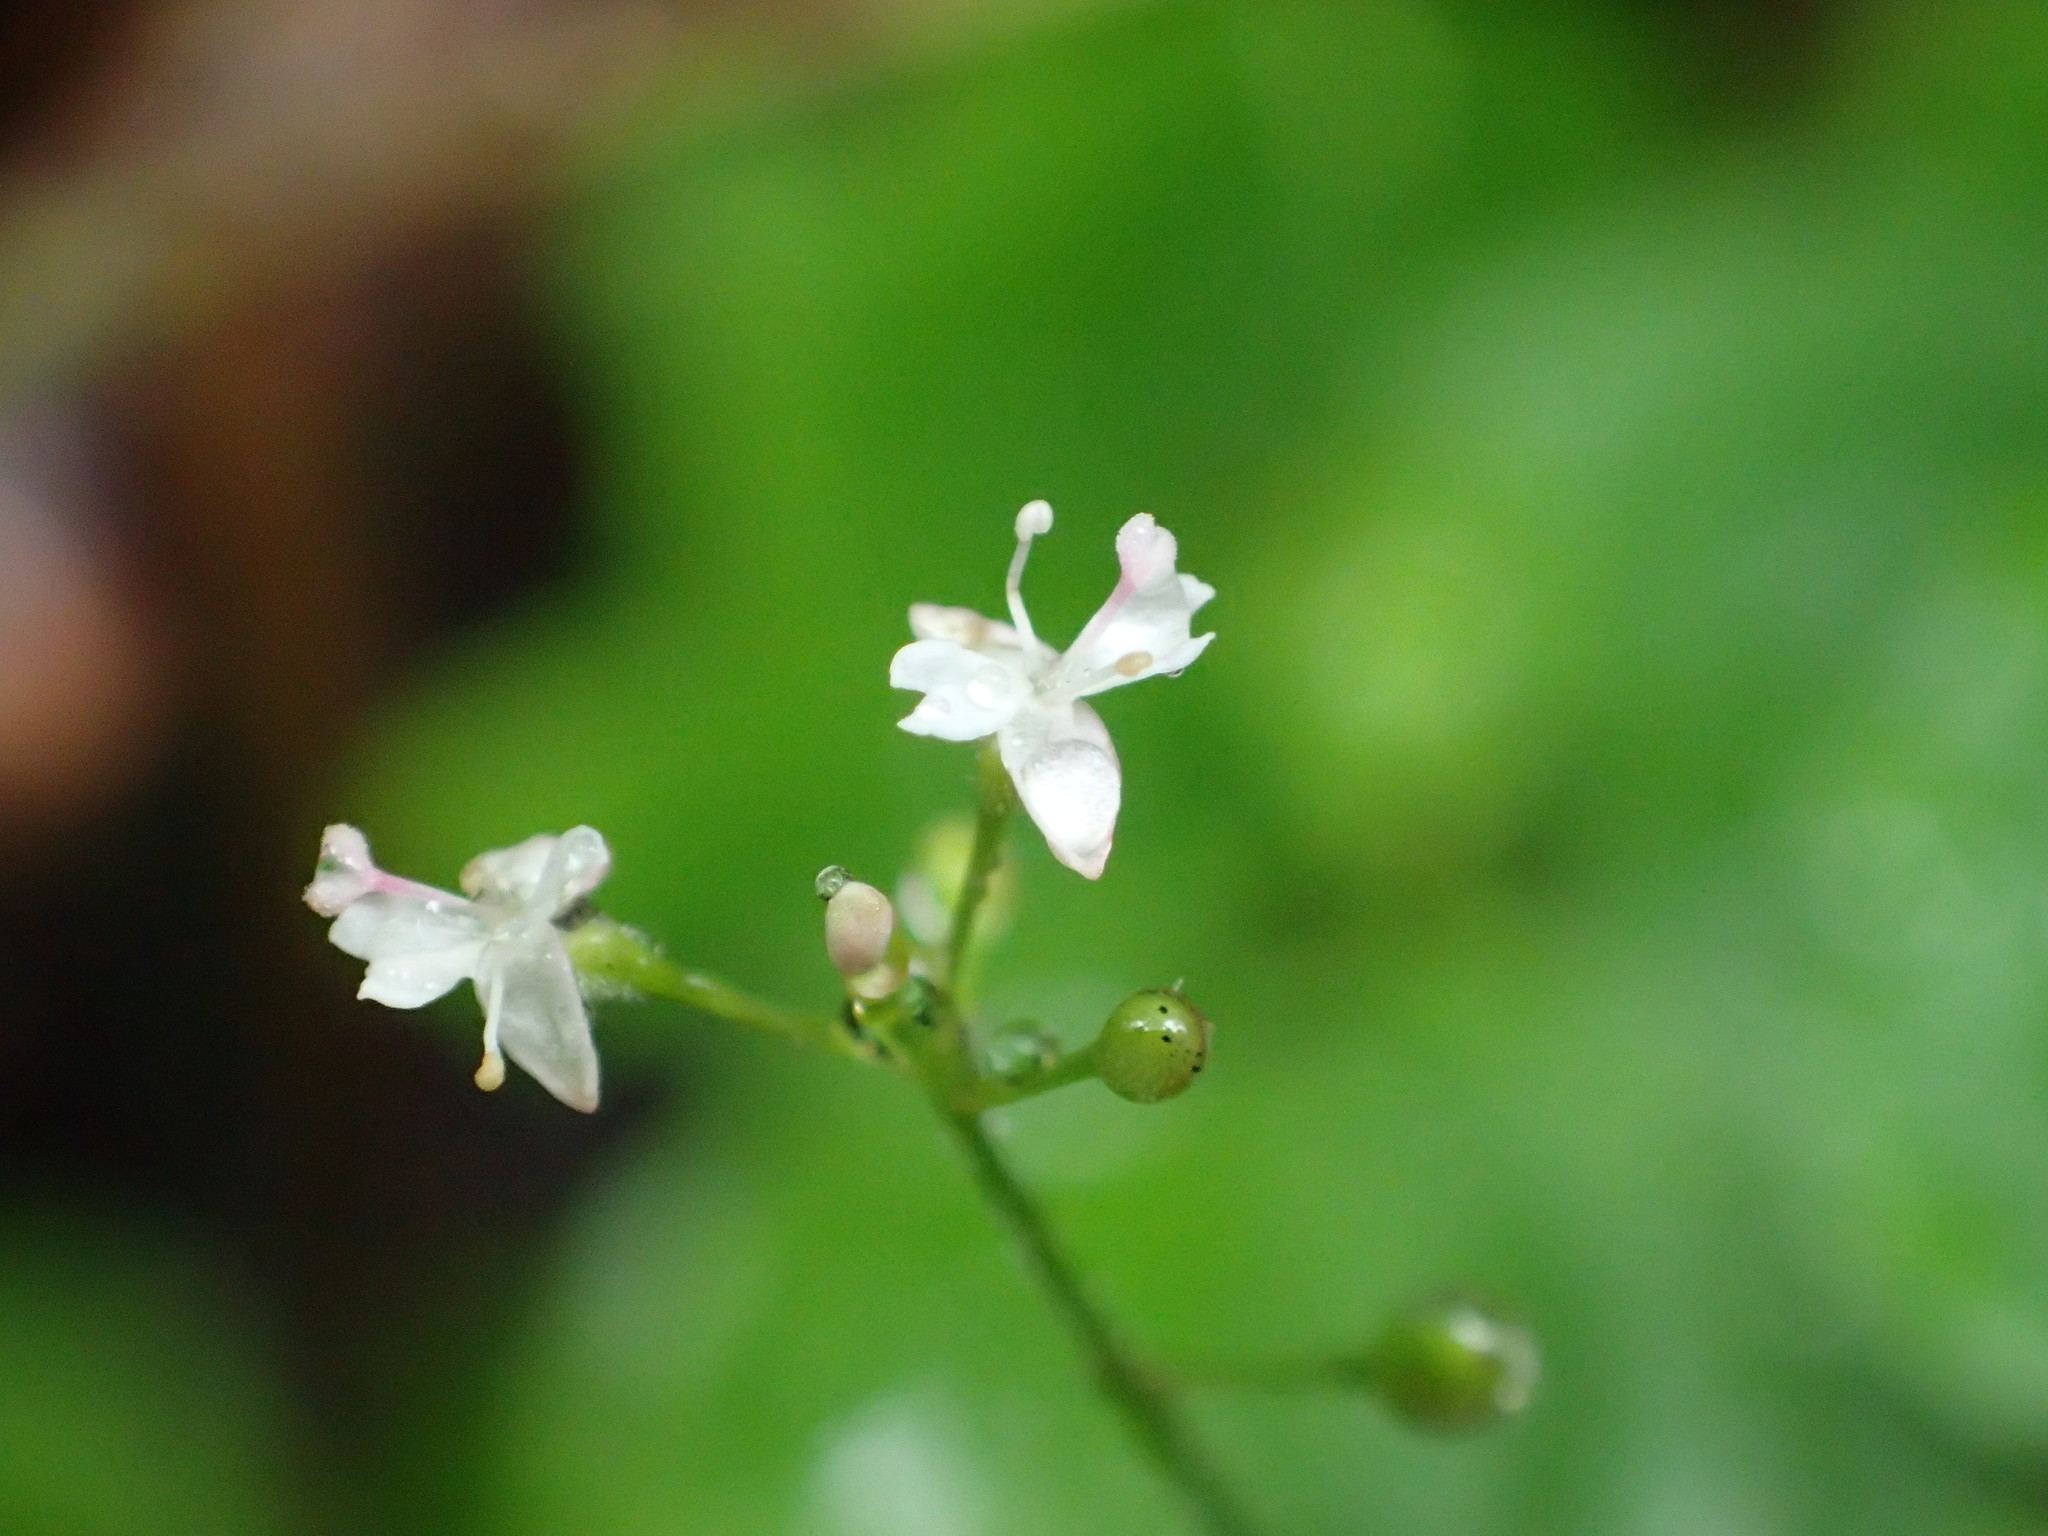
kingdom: Plantae
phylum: Tracheophyta
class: Magnoliopsida
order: Myrtales
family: Onagraceae
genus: Circaea
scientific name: Circaea alpina
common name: Alpine enchanter's-nightshade
